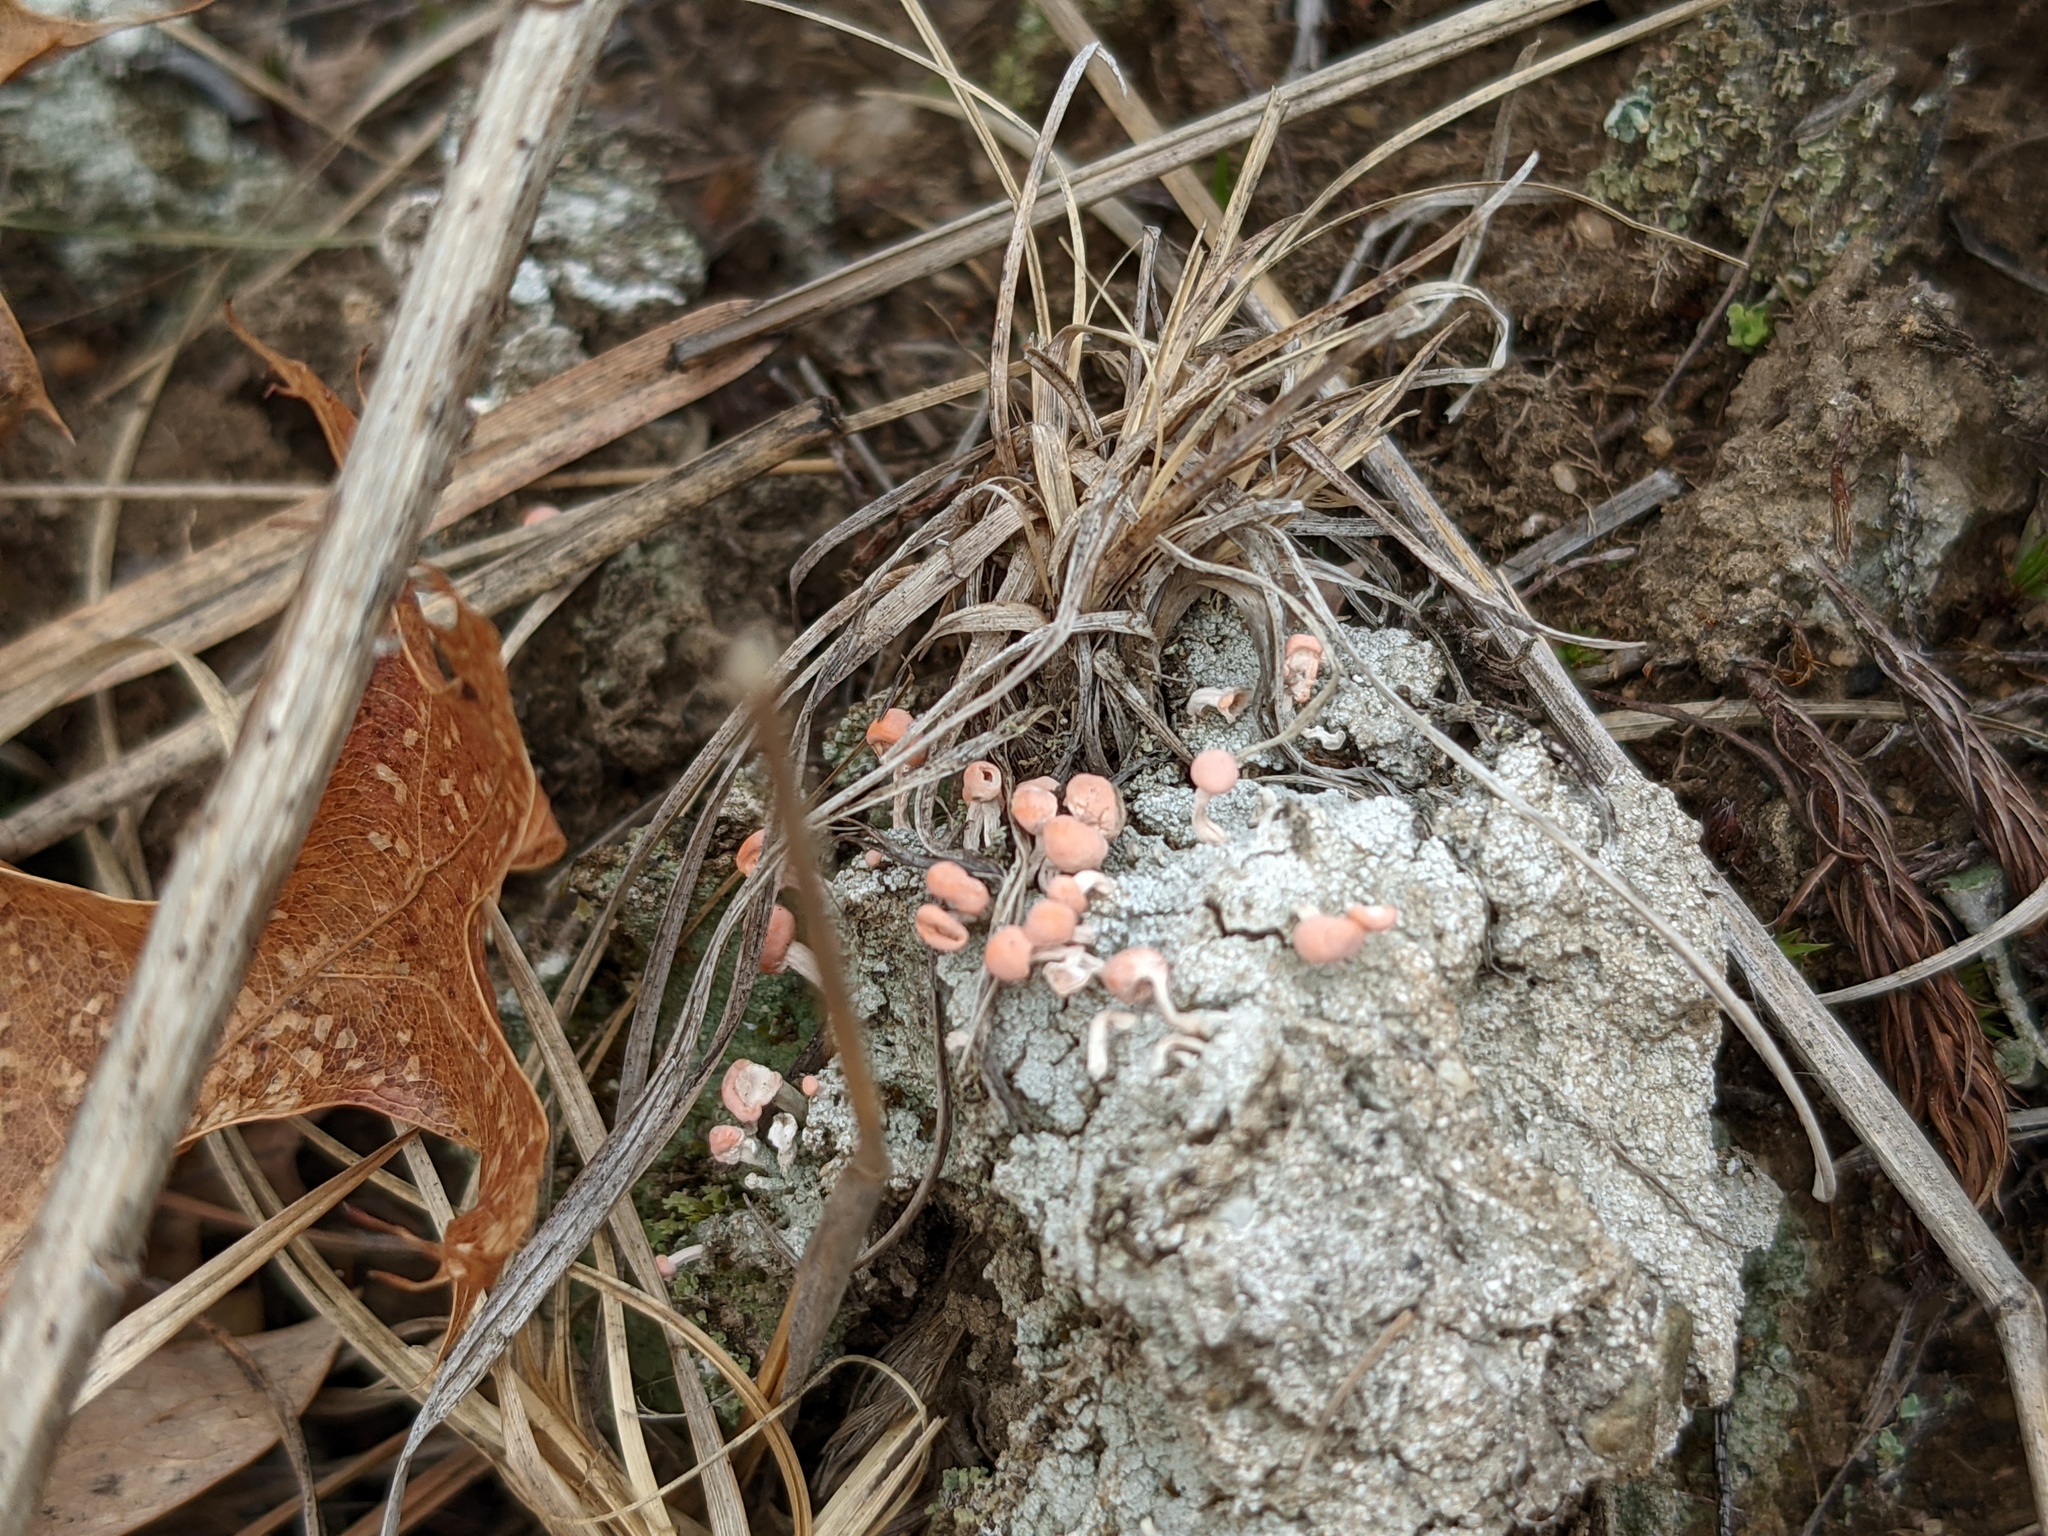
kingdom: Fungi
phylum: Ascomycota
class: Lecanoromycetes
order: Pertusariales
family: Icmadophilaceae
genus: Dibaeis
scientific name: Dibaeis baeomyces
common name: Pink earth lichen
